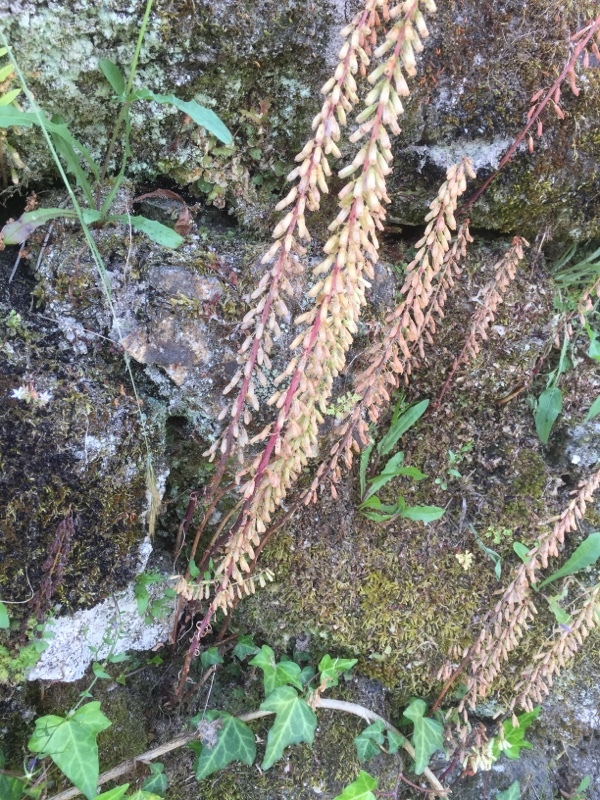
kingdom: Plantae
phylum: Tracheophyta
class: Magnoliopsida
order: Saxifragales
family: Crassulaceae
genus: Umbilicus
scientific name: Umbilicus rupestris
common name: Navelwort
